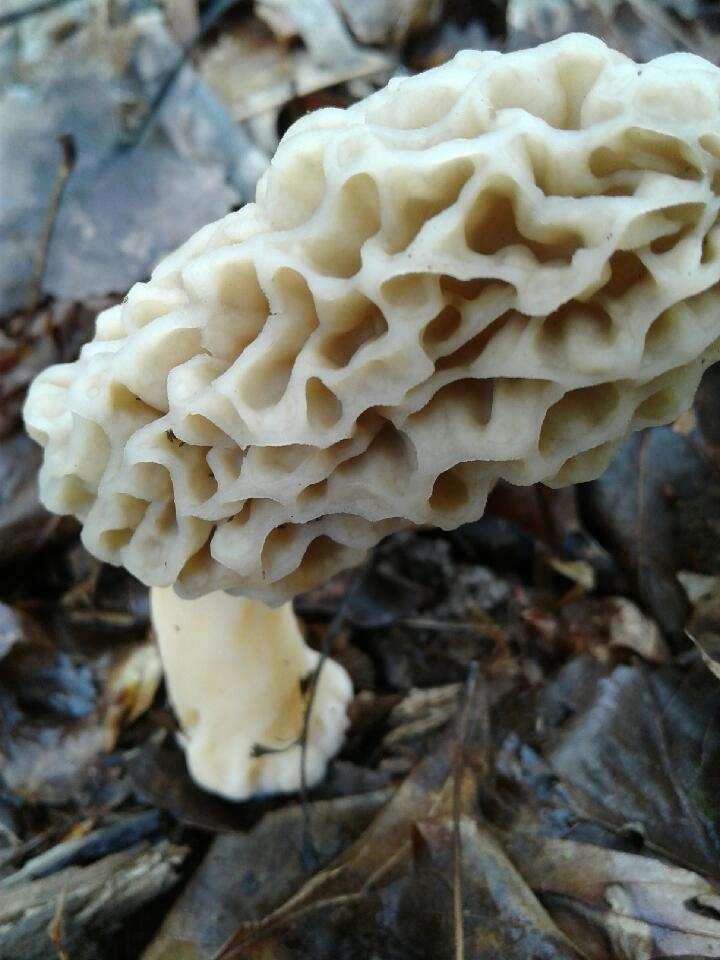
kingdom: Fungi
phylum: Ascomycota
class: Pezizomycetes
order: Pezizales
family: Morchellaceae
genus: Morchella
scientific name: Morchella americana
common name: White morel
